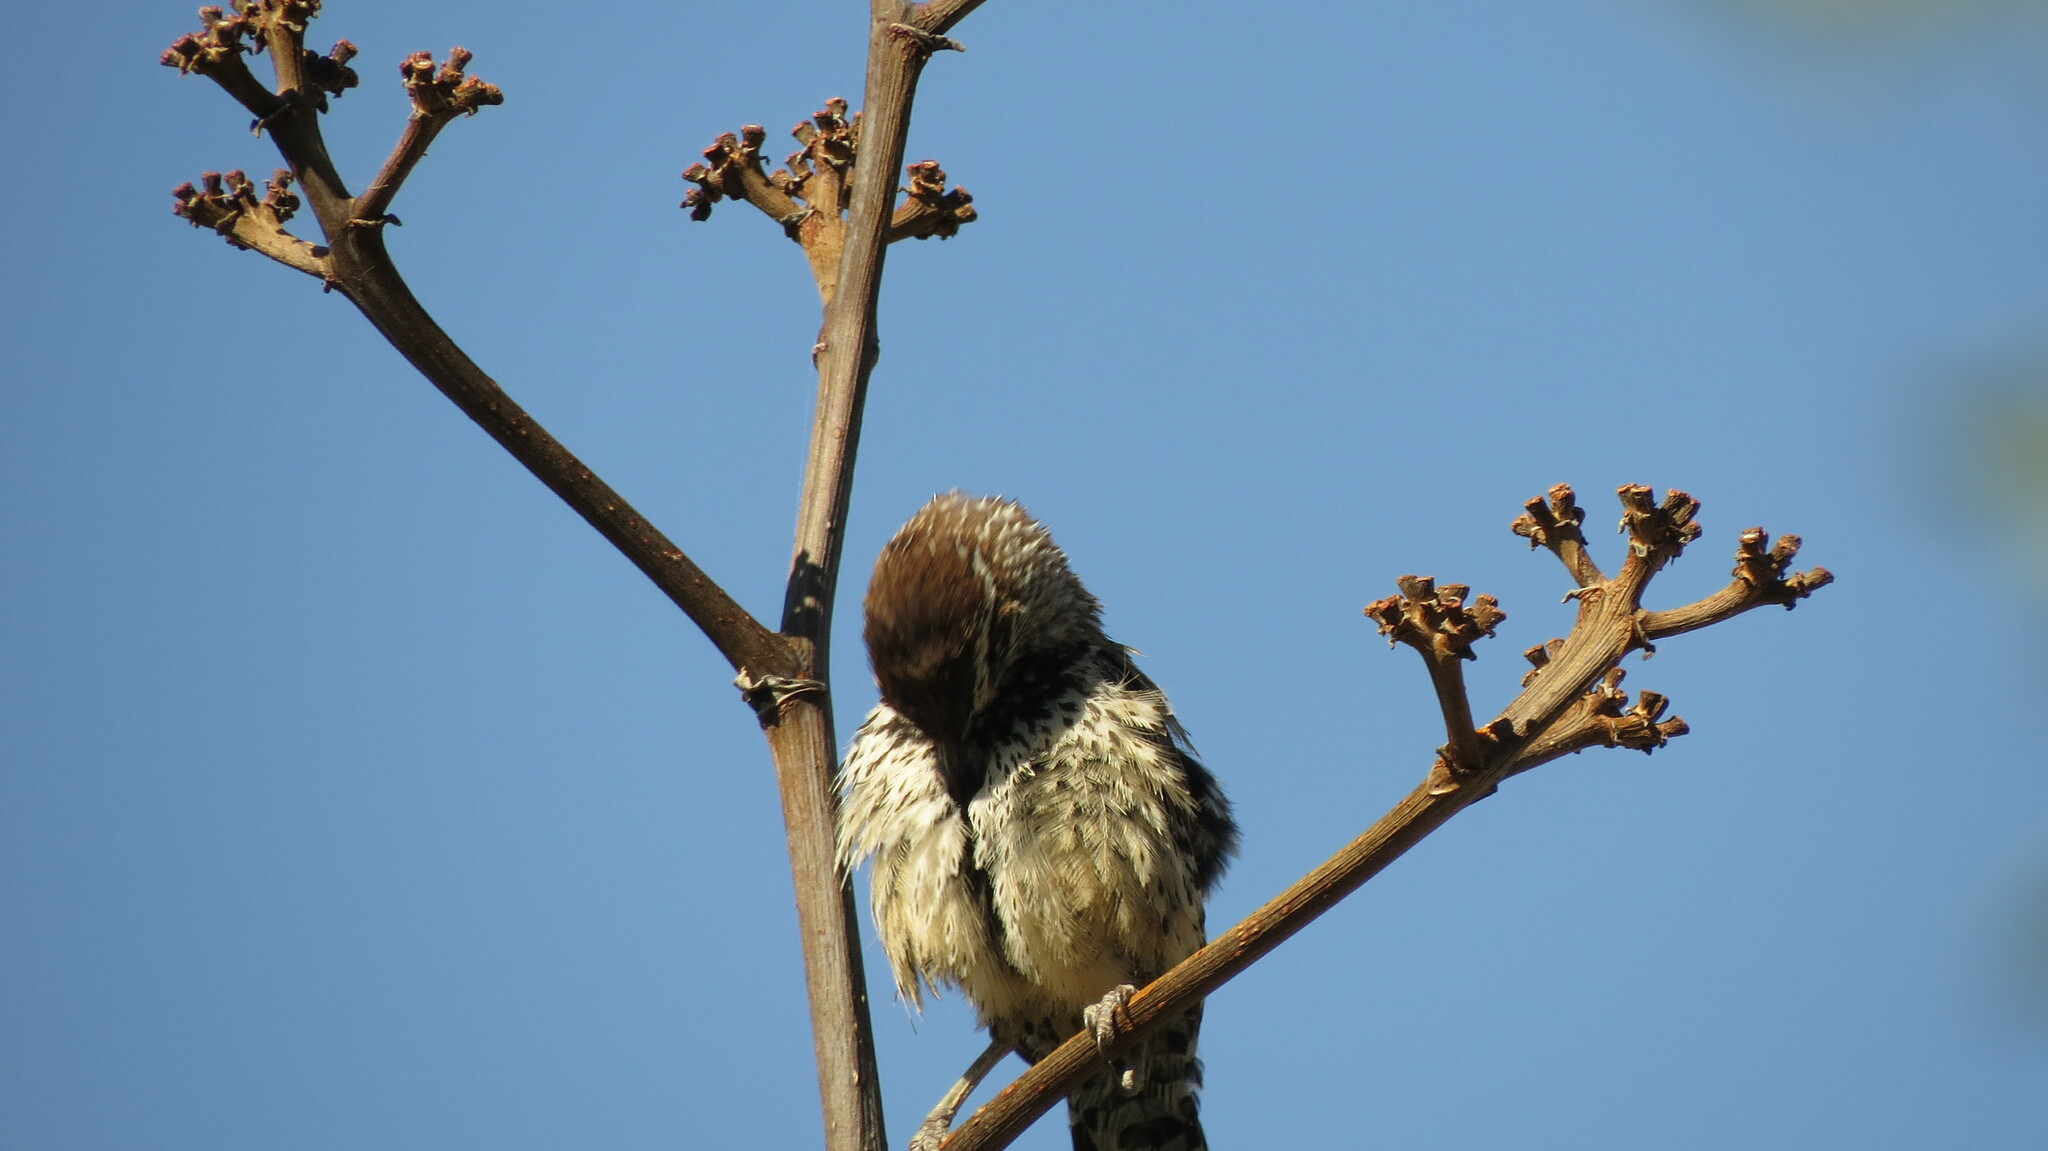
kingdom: Animalia
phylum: Chordata
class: Aves
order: Passeriformes
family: Troglodytidae
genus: Campylorhynchus
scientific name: Campylorhynchus brunneicapillus
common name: Cactus wren
